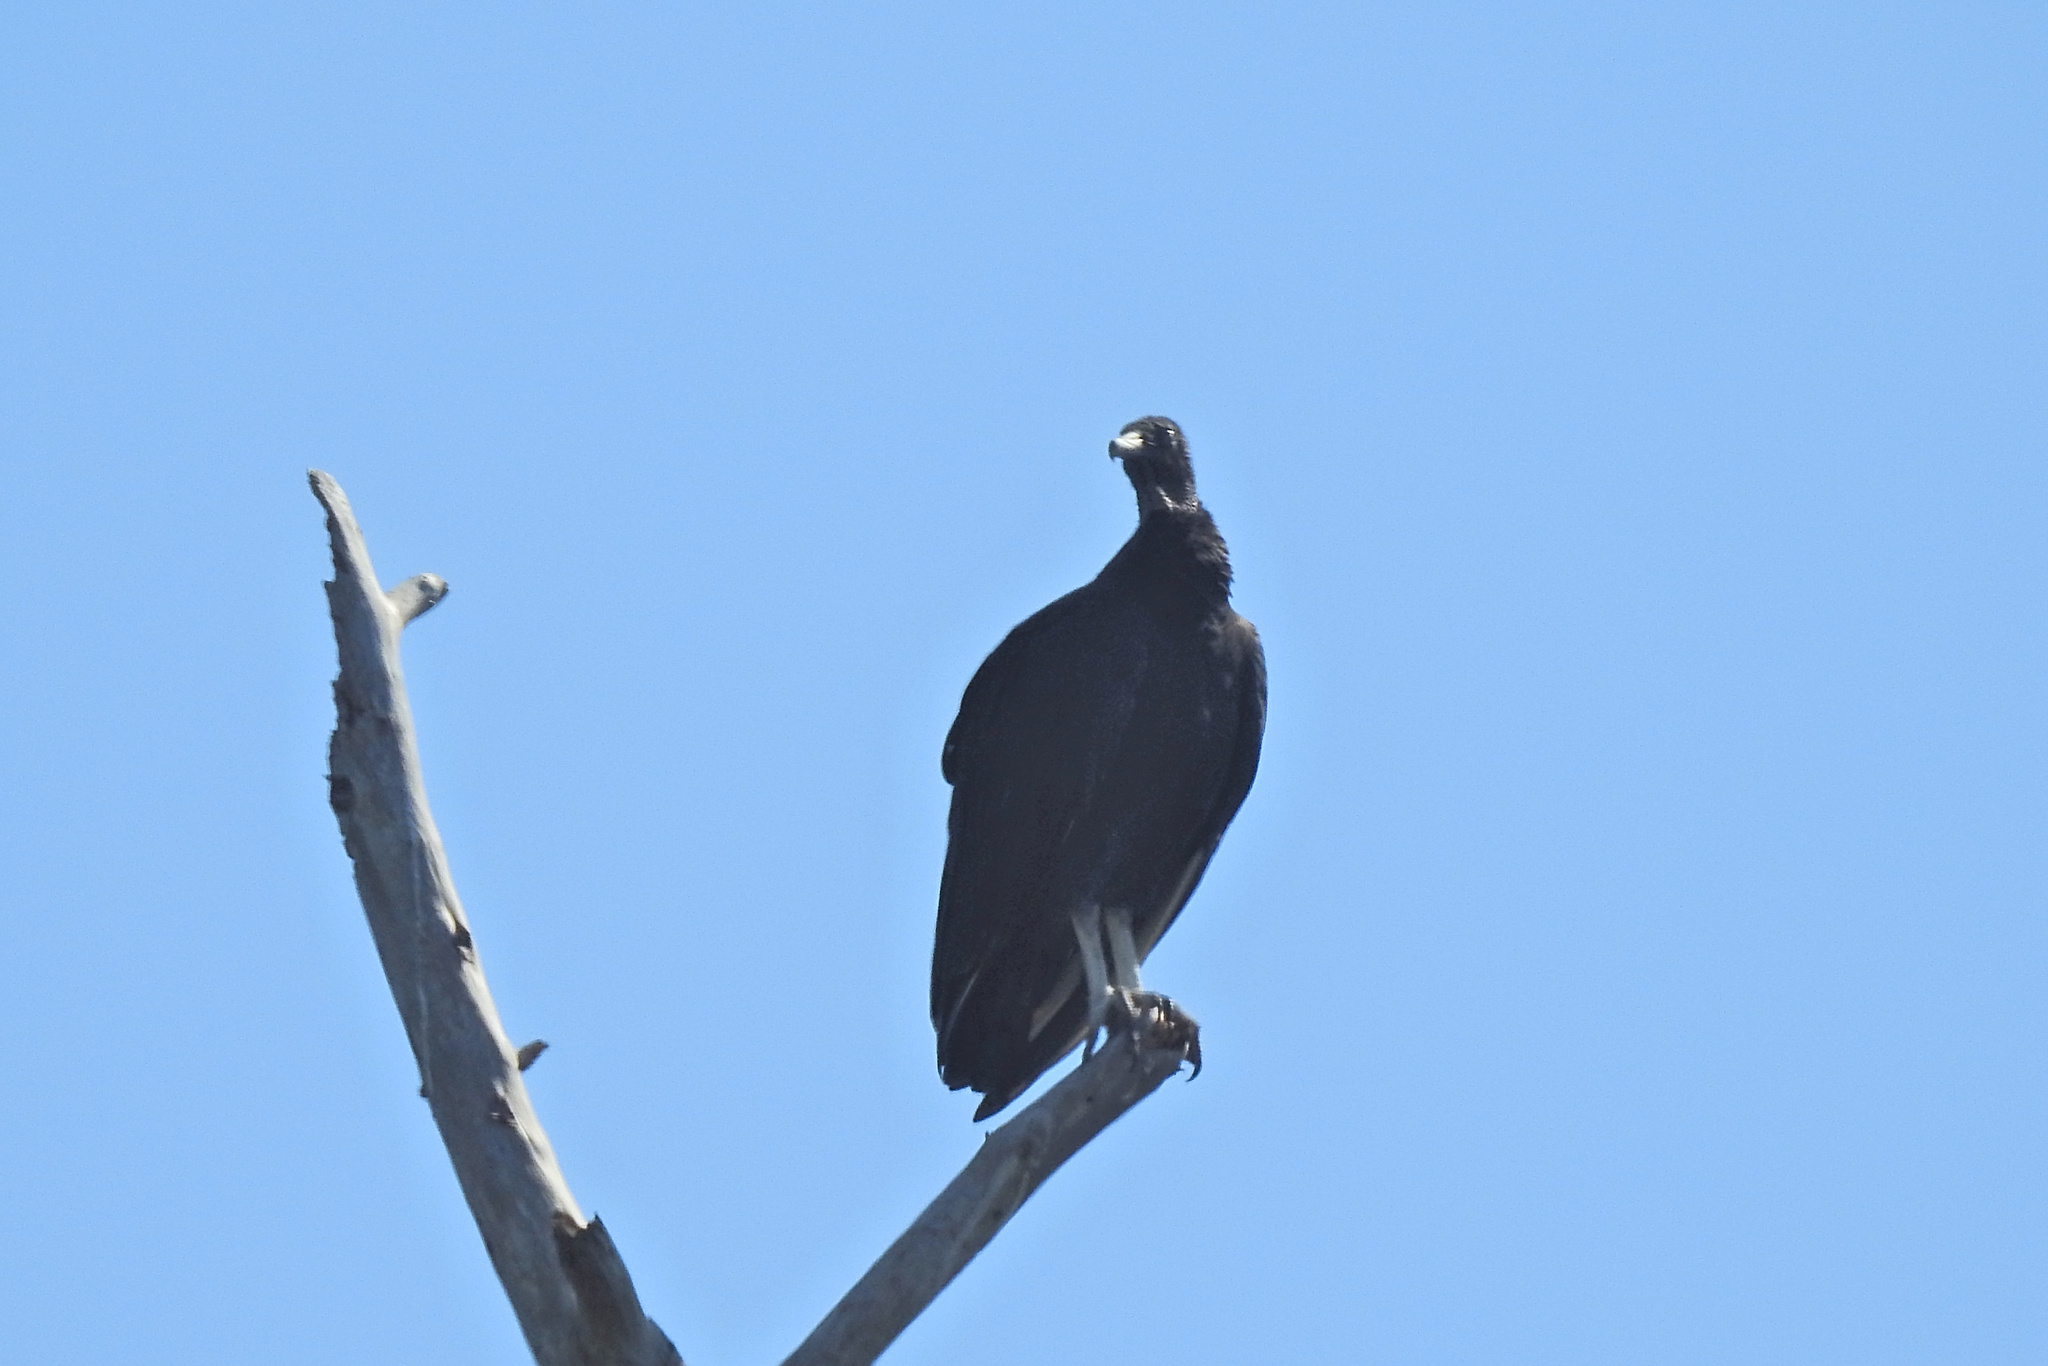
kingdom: Animalia
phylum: Chordata
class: Aves
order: Accipitriformes
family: Cathartidae
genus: Coragyps
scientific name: Coragyps atratus
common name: Black vulture
